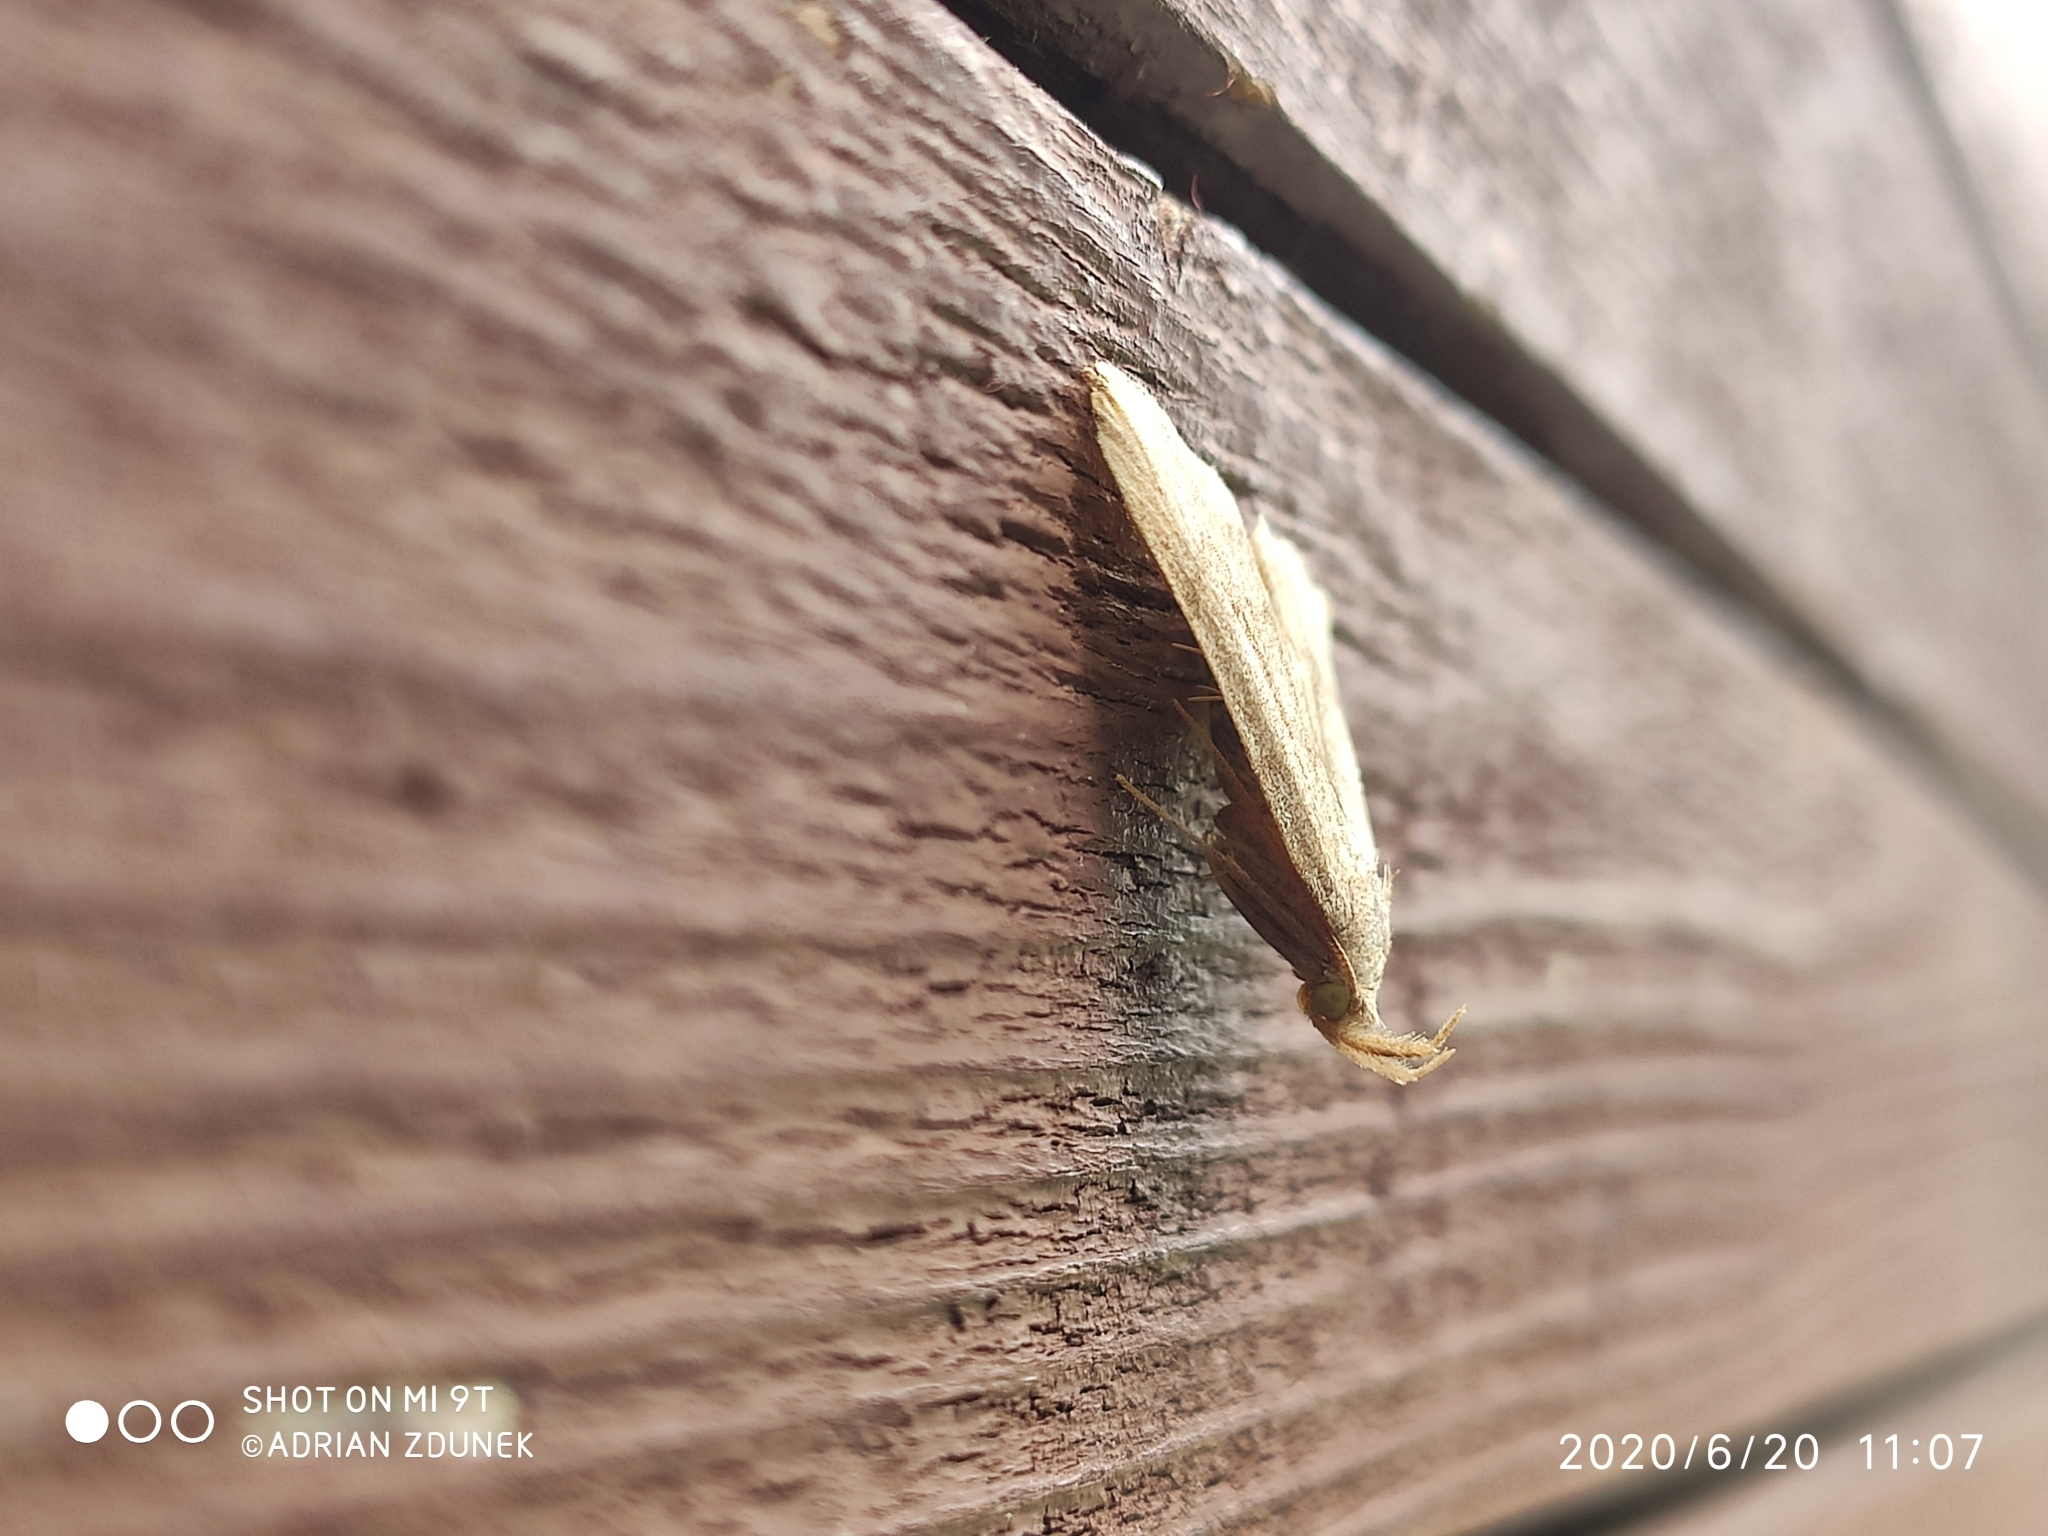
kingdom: Animalia
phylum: Arthropoda
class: Insecta
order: Lepidoptera
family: Erebidae
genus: Pechipogo
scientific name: Pechipogo strigilata
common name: Common fan-foot
